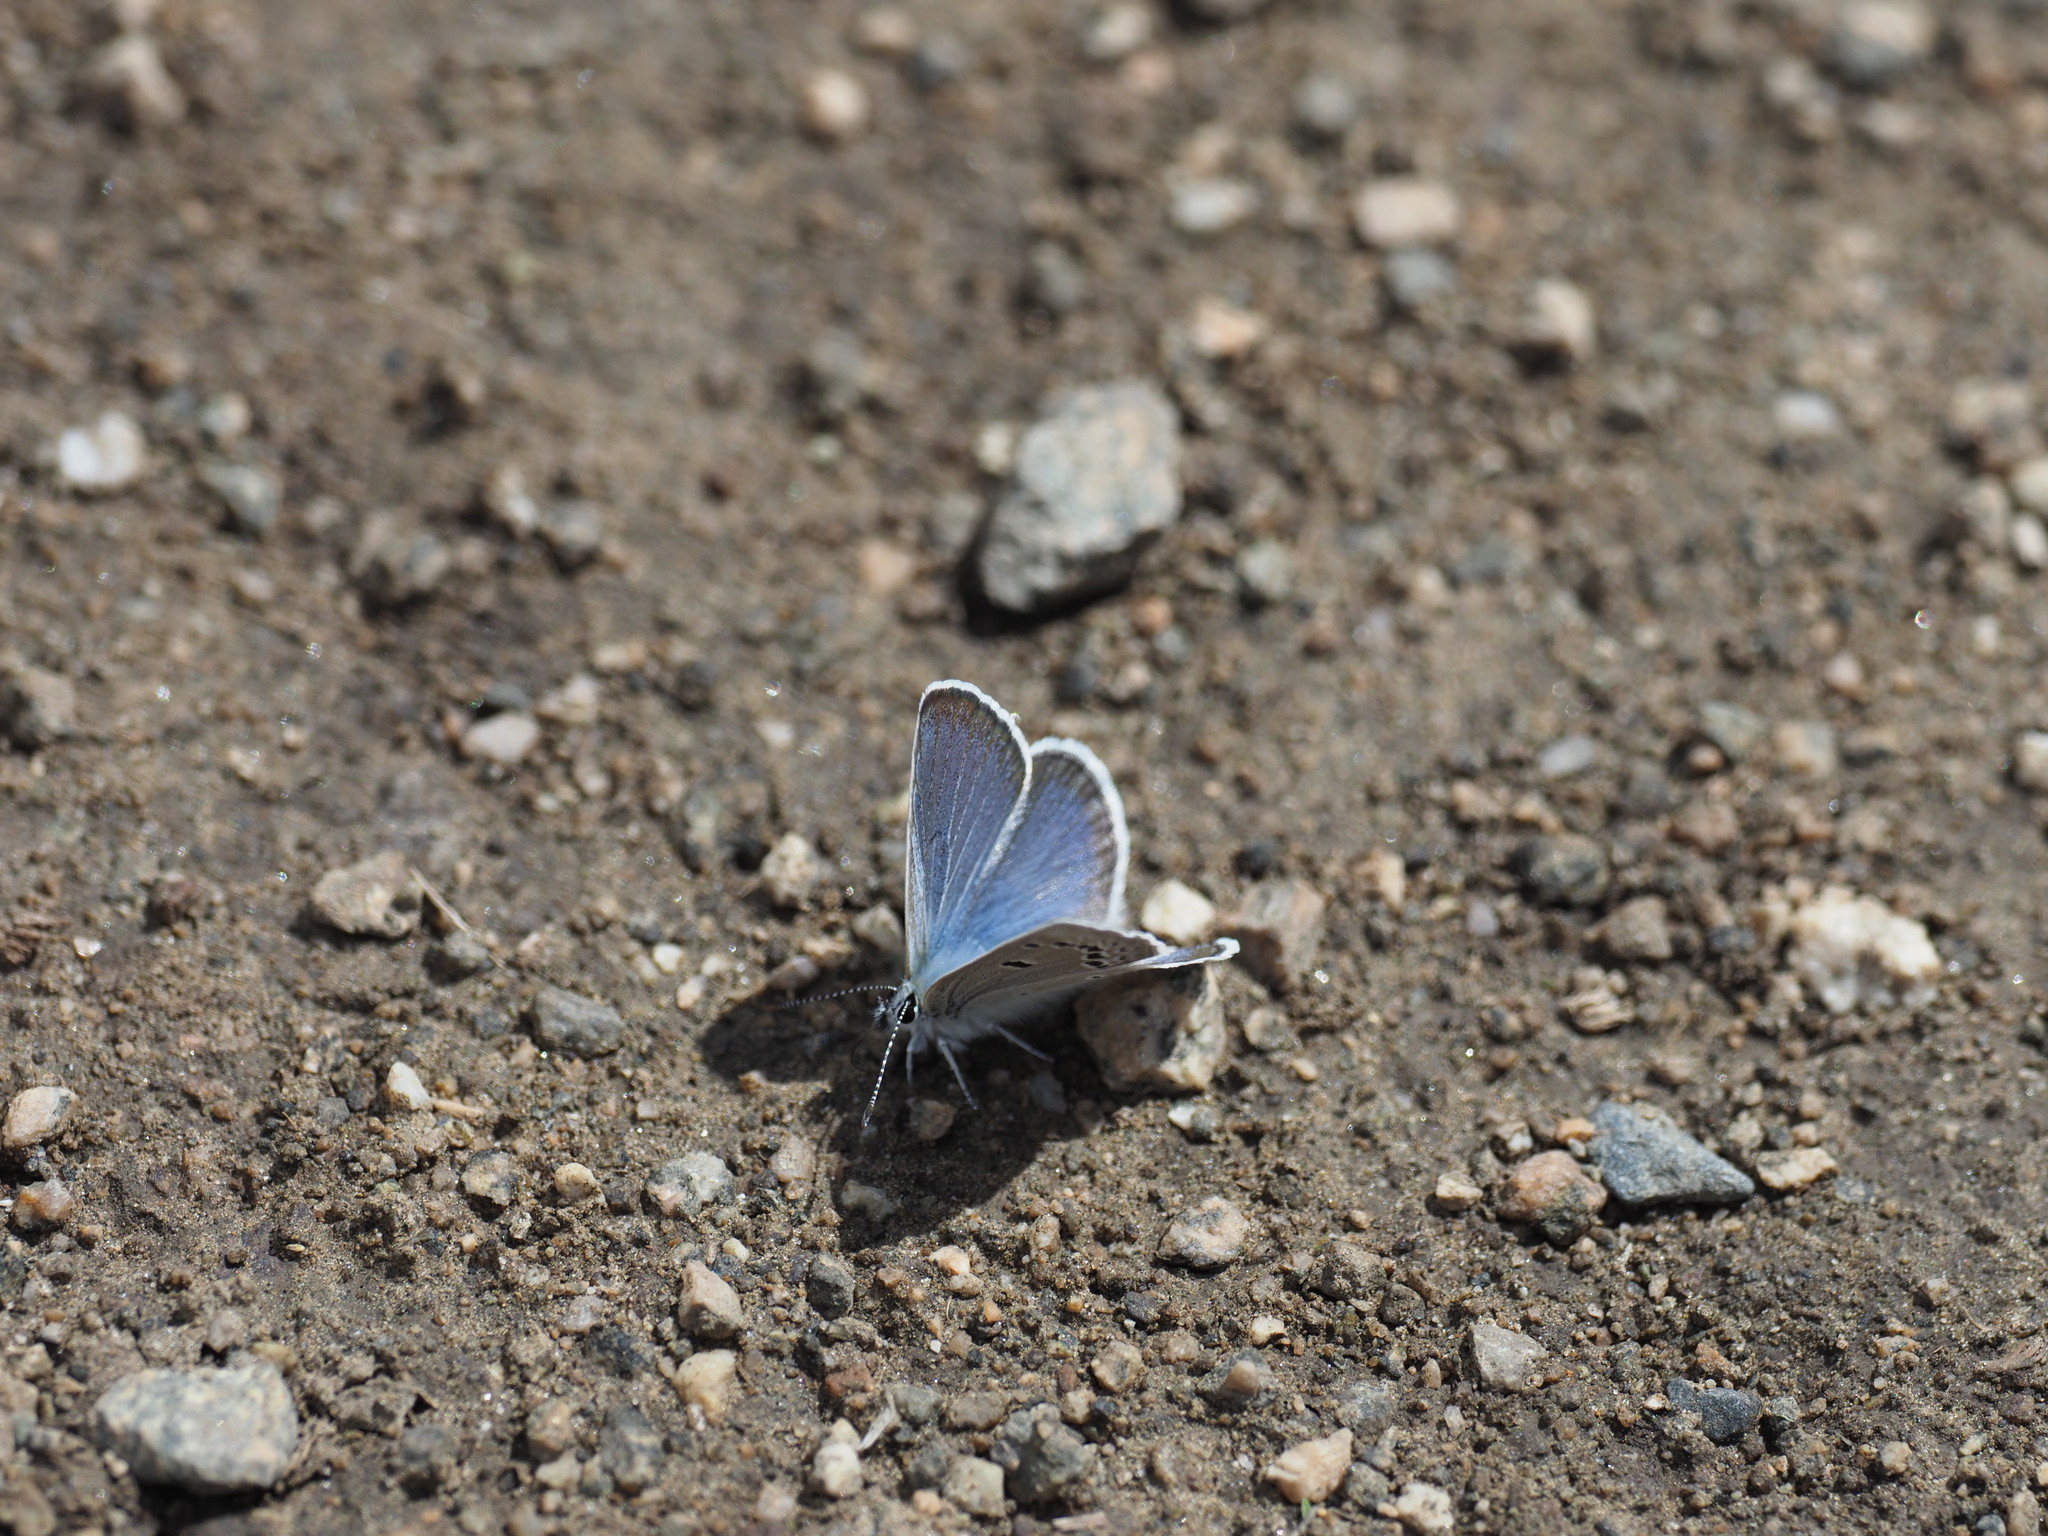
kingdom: Animalia
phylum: Arthropoda
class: Insecta
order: Lepidoptera
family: Lycaenidae
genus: Glaucopsyche
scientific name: Glaucopsyche lygdamus
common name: Silvery blue
